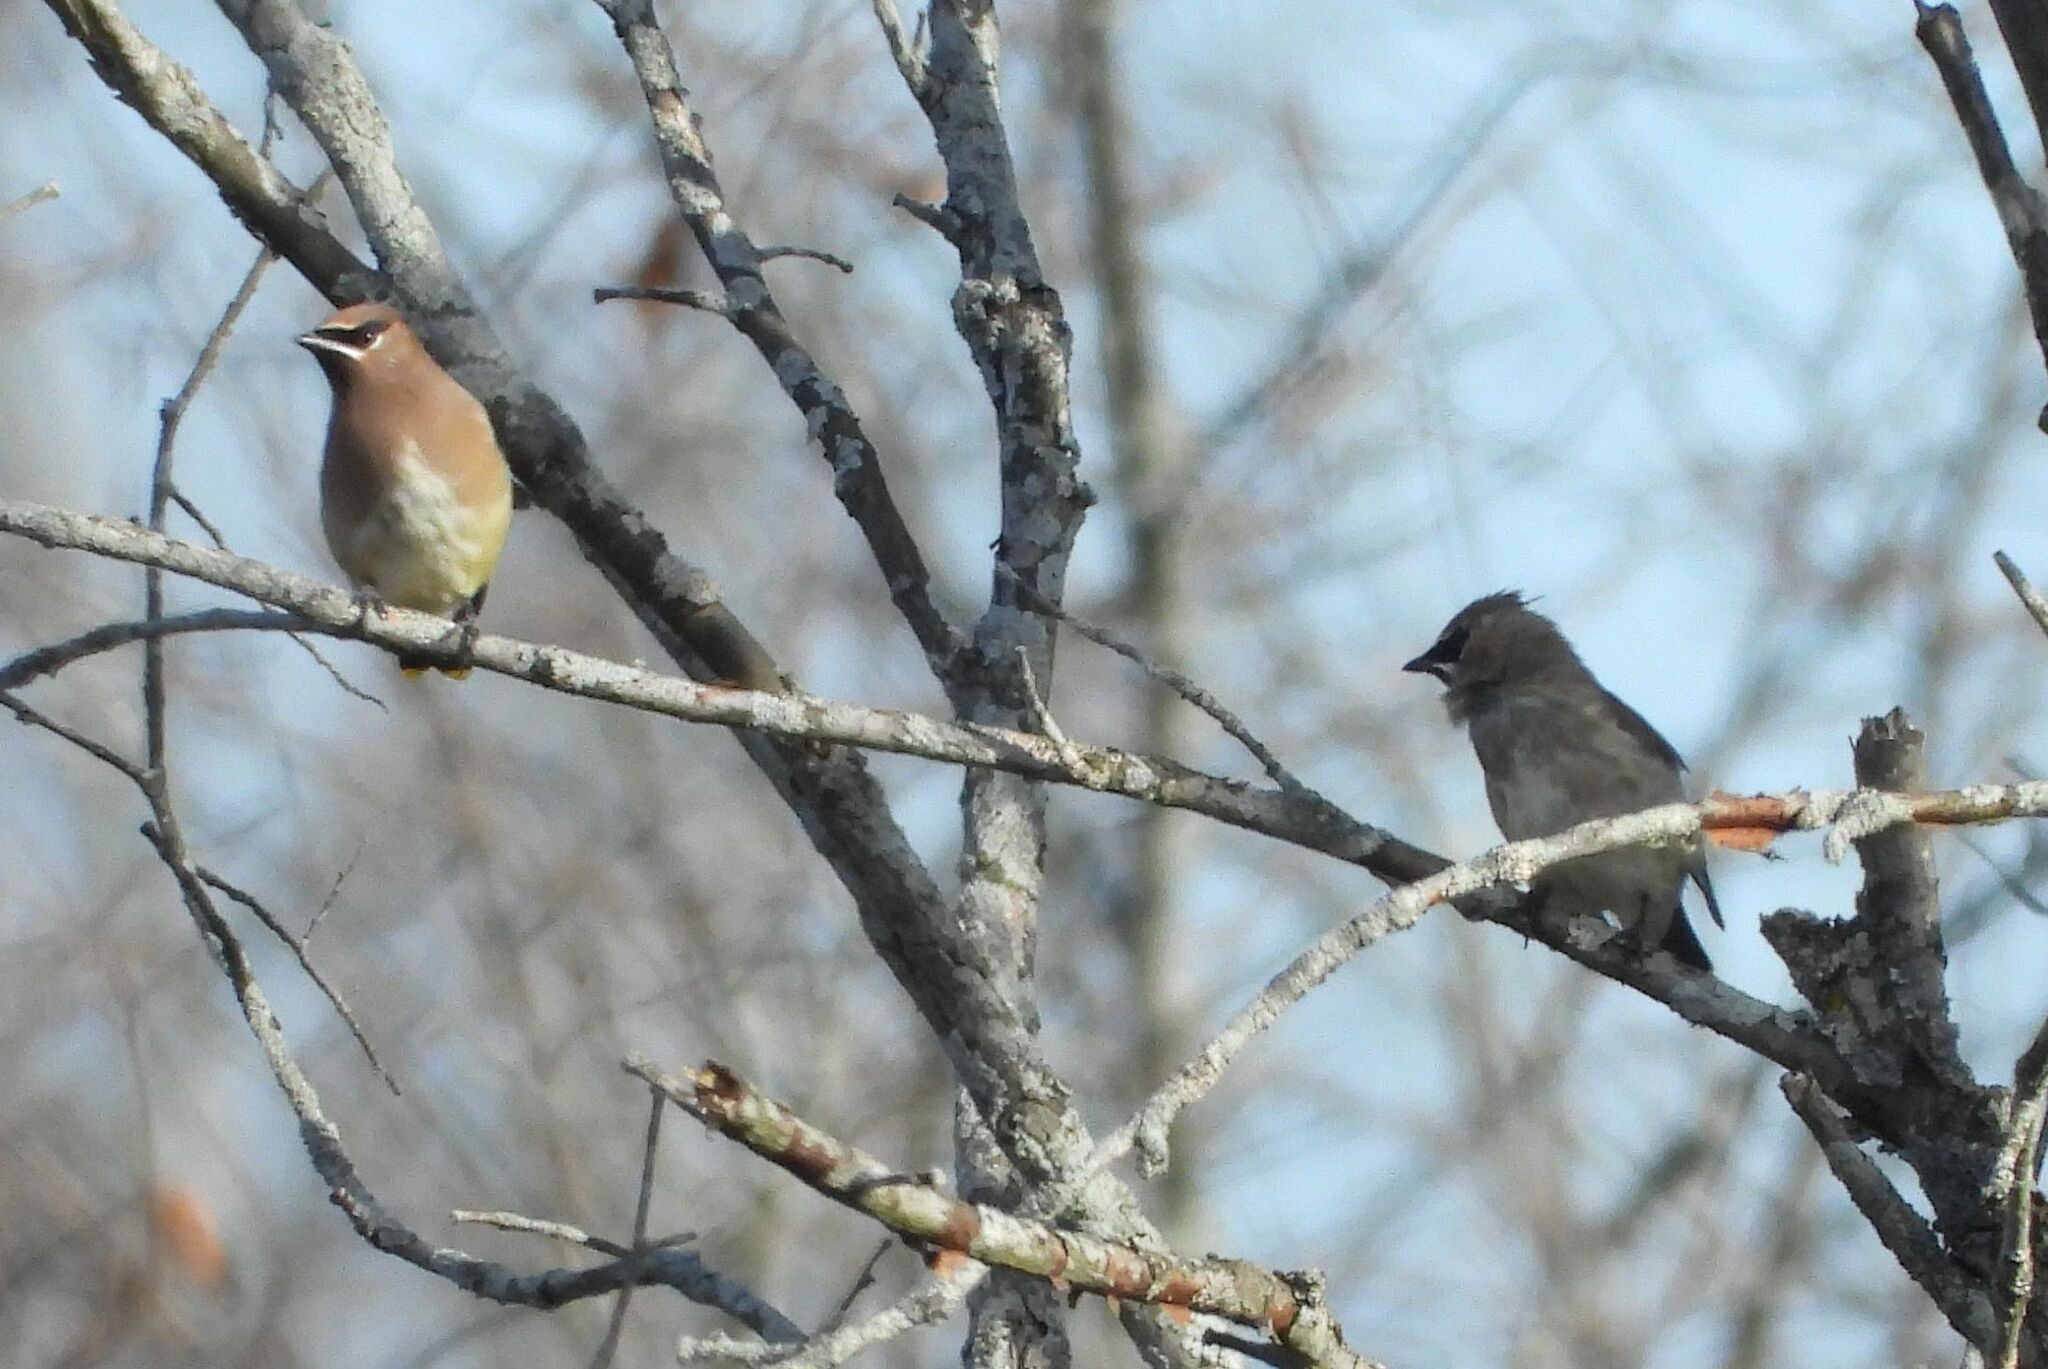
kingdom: Animalia
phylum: Chordata
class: Aves
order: Passeriformes
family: Bombycillidae
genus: Bombycilla
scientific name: Bombycilla cedrorum
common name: Cedar waxwing
